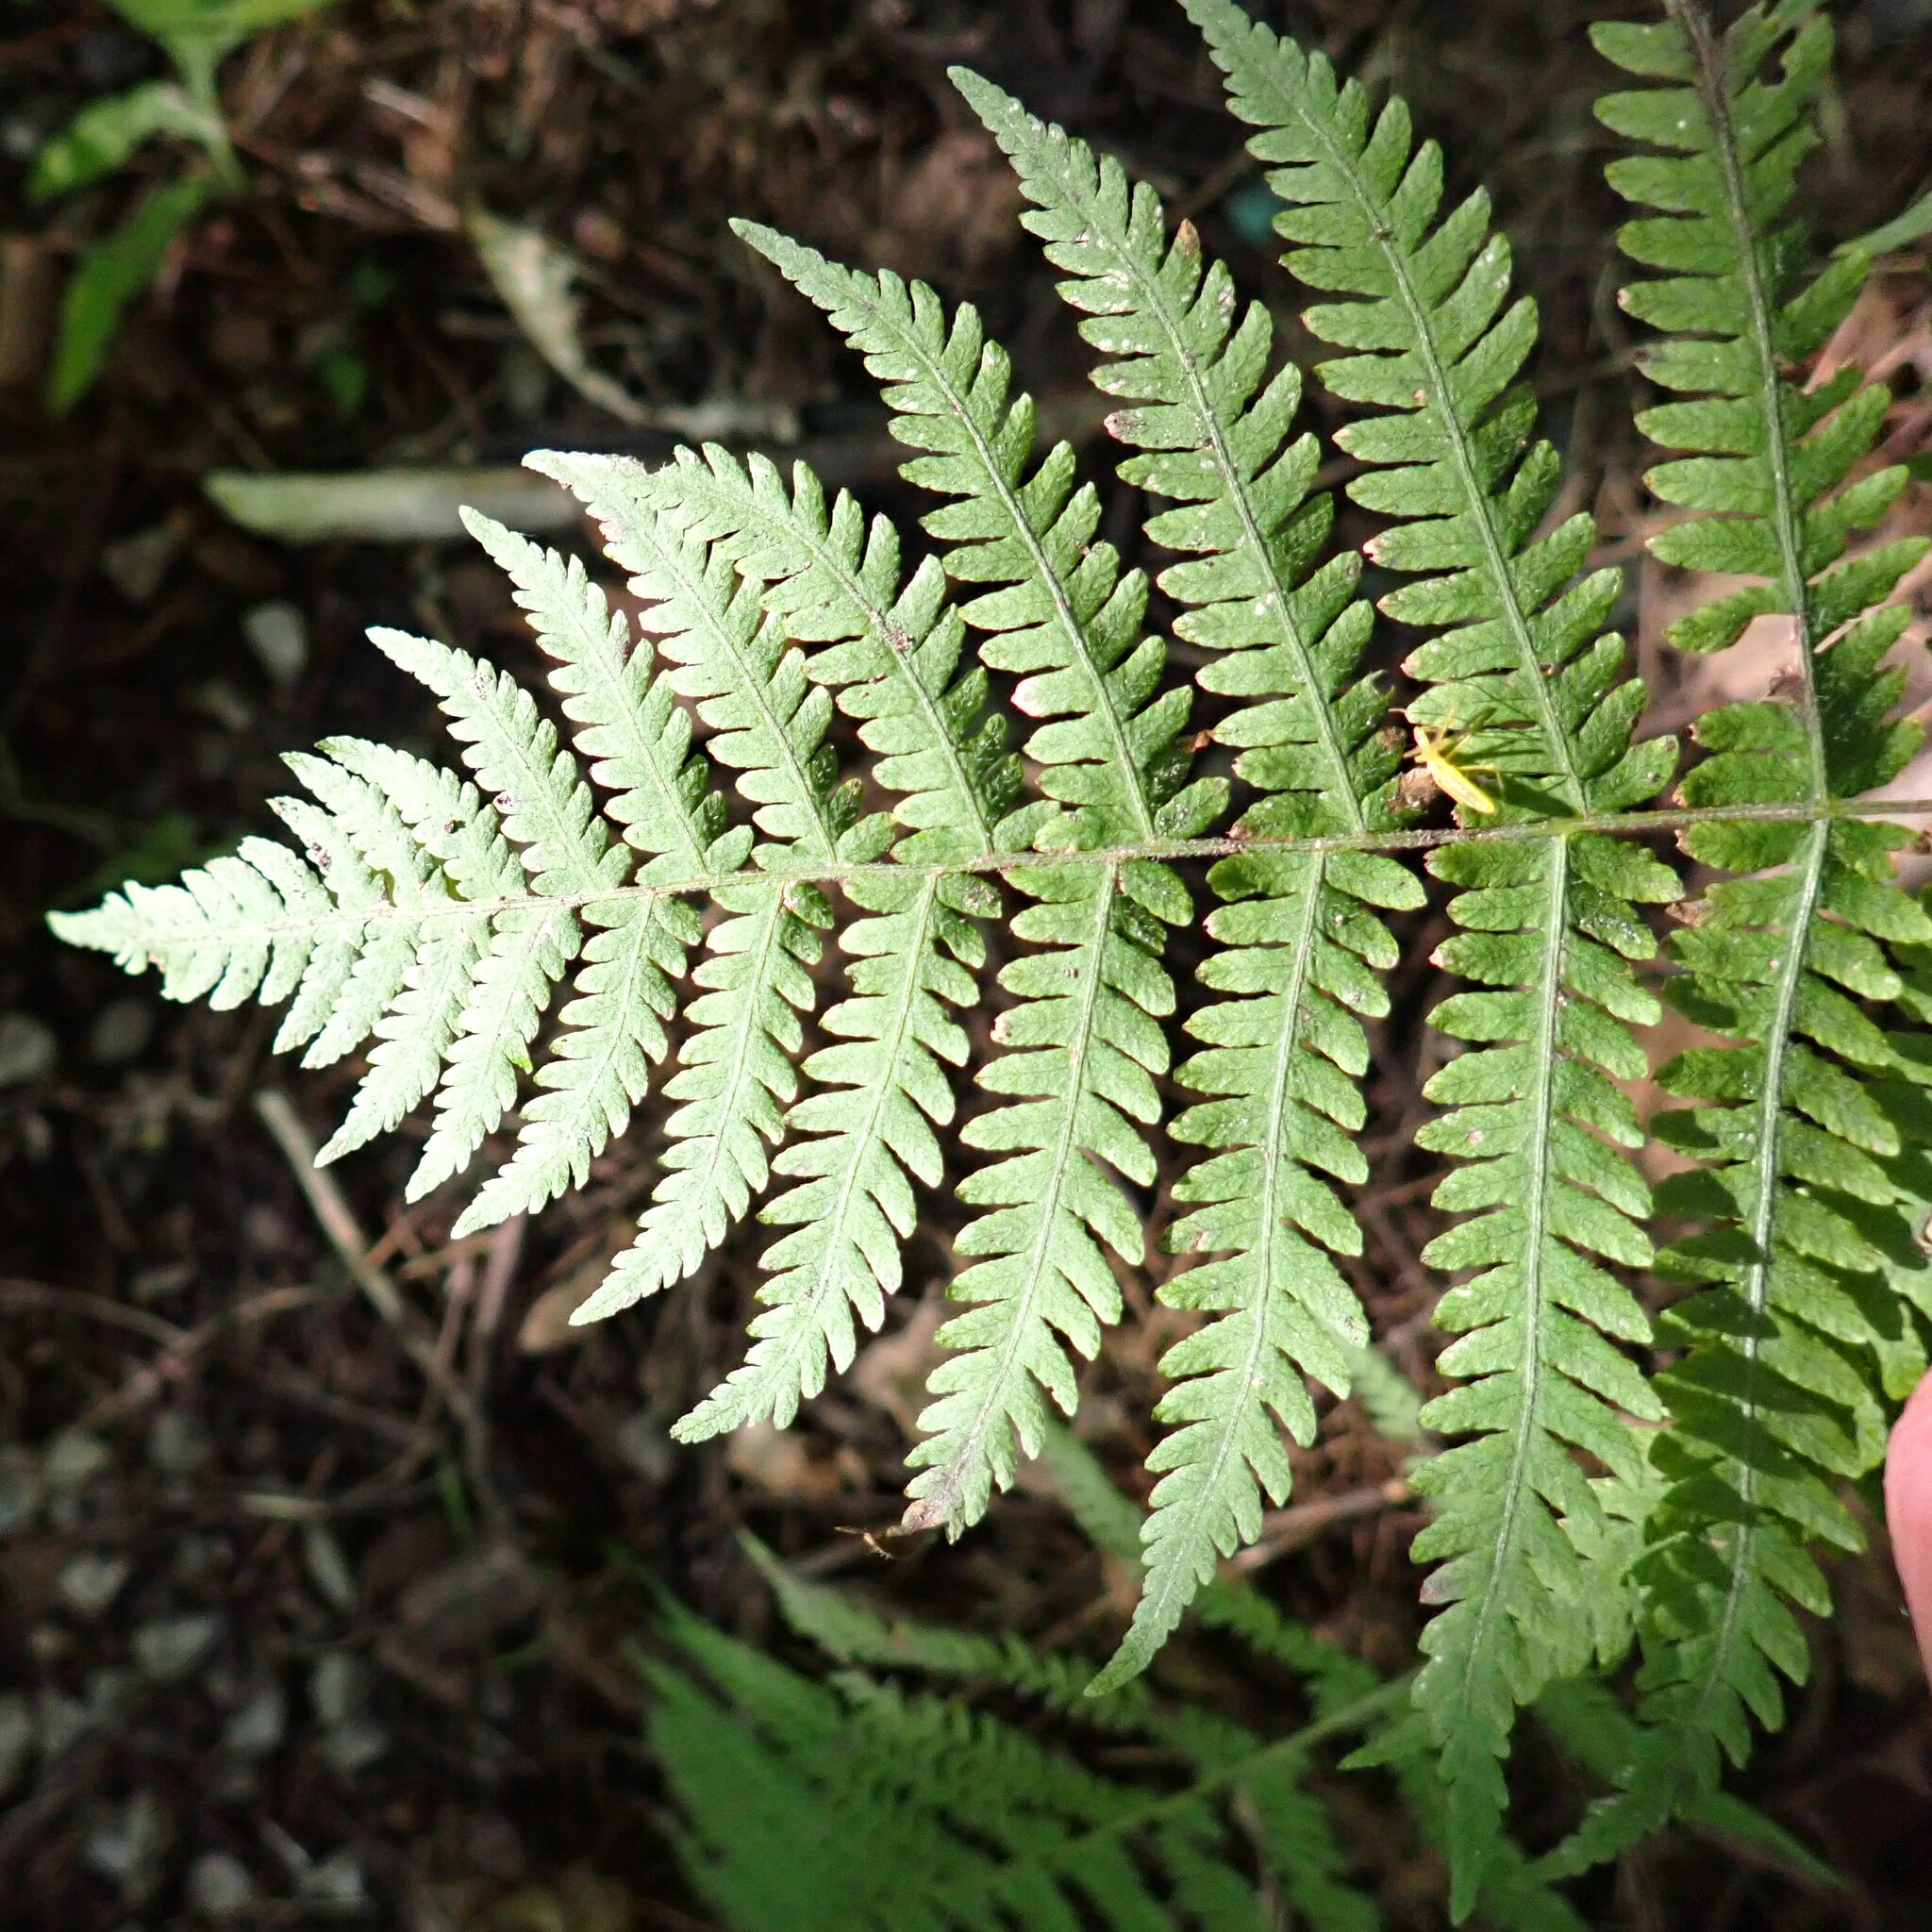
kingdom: Plantae
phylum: Tracheophyta
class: Polypodiopsida
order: Polypodiales
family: Thelypteridaceae
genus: Amauropelta
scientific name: Amauropelta noveboracensis
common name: New york fern
